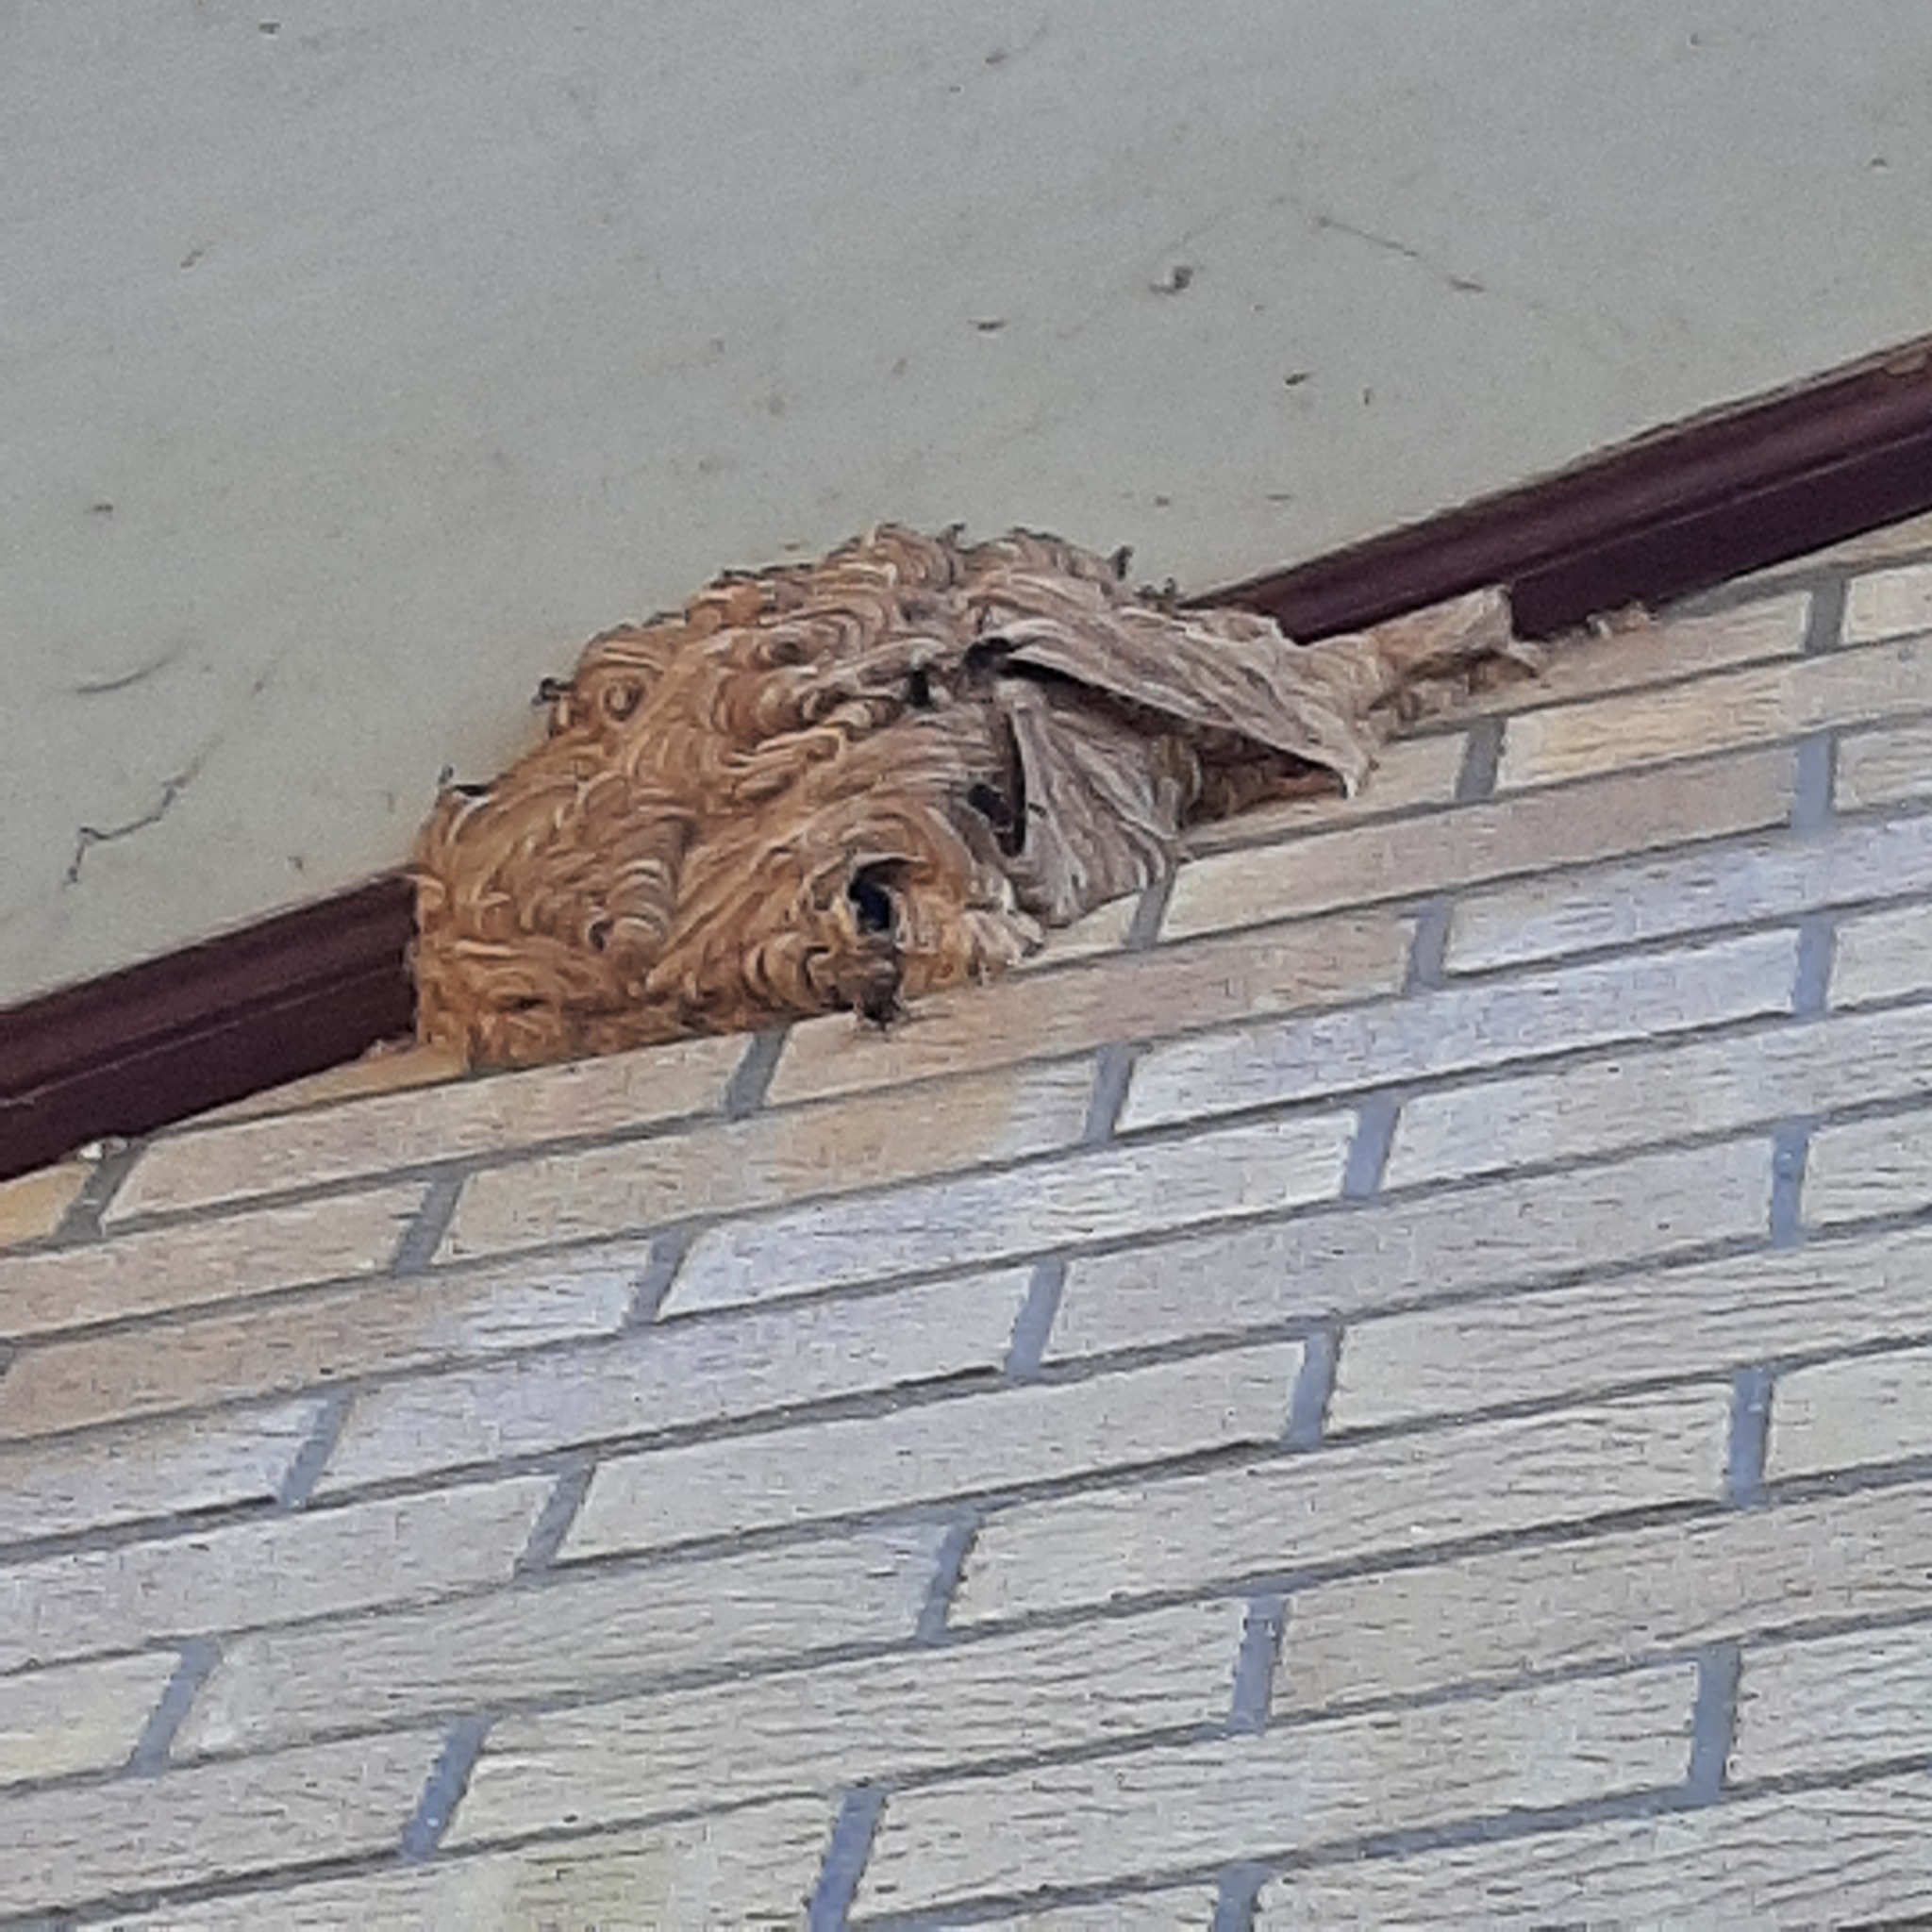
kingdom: Animalia
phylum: Arthropoda
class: Insecta
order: Hymenoptera
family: Vespidae
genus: Vespa
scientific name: Vespa velutina
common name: Asian hornet
